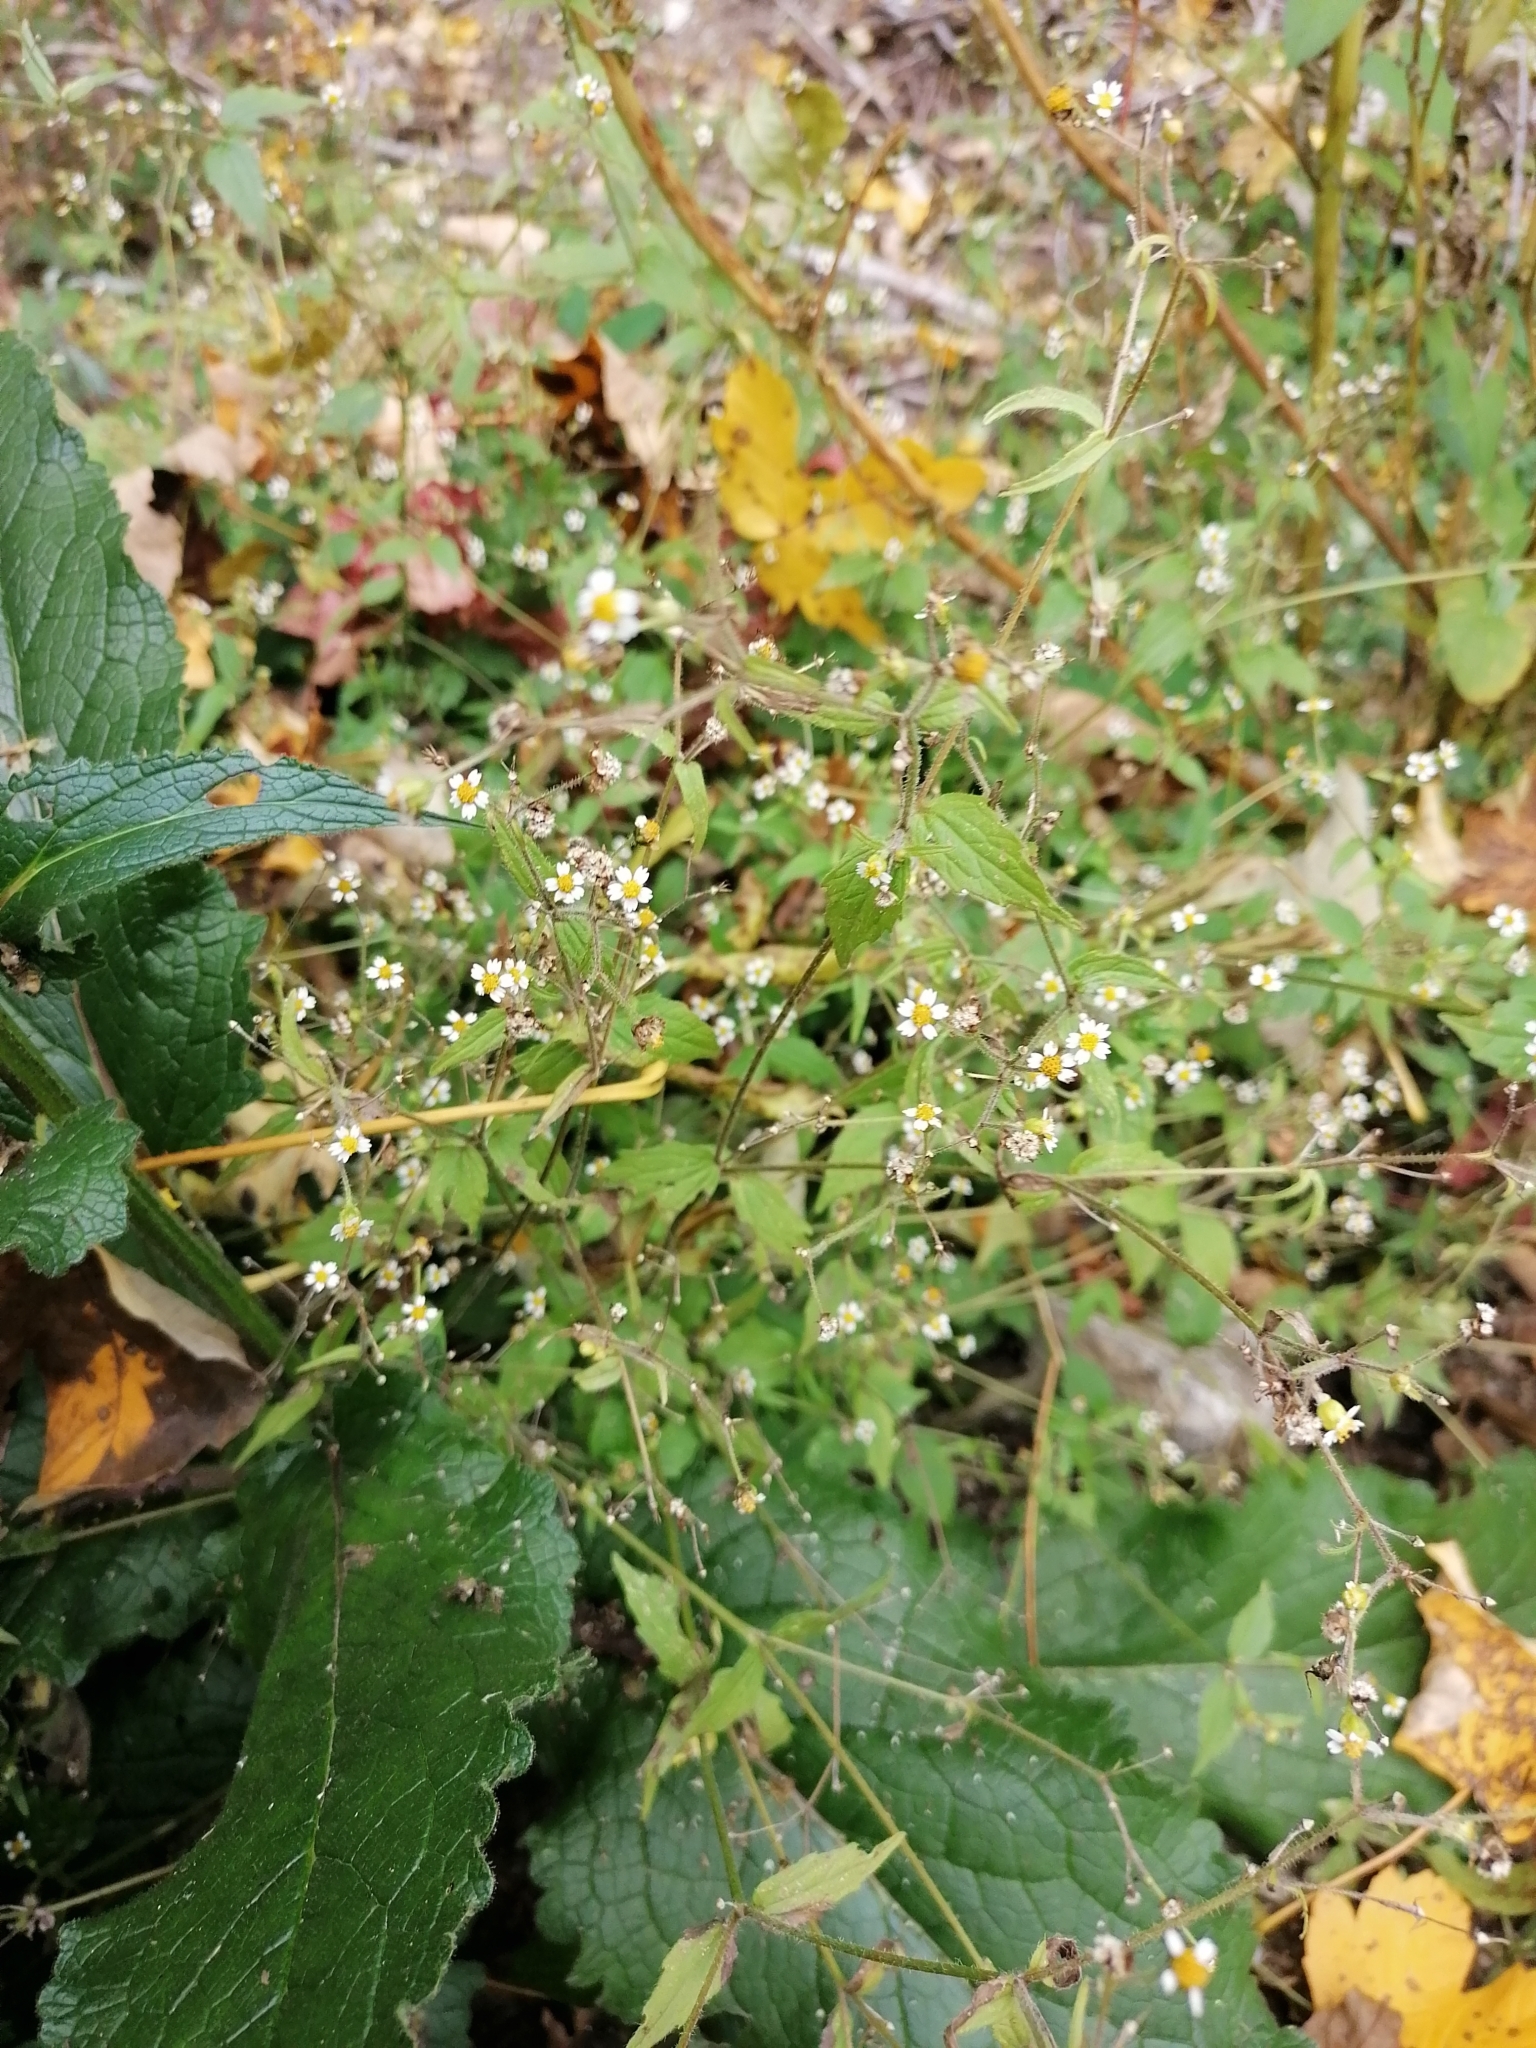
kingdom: Plantae
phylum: Tracheophyta
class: Magnoliopsida
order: Asterales
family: Asteraceae
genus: Galinsoga
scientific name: Galinsoga quadriradiata
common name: Shaggy soldier
